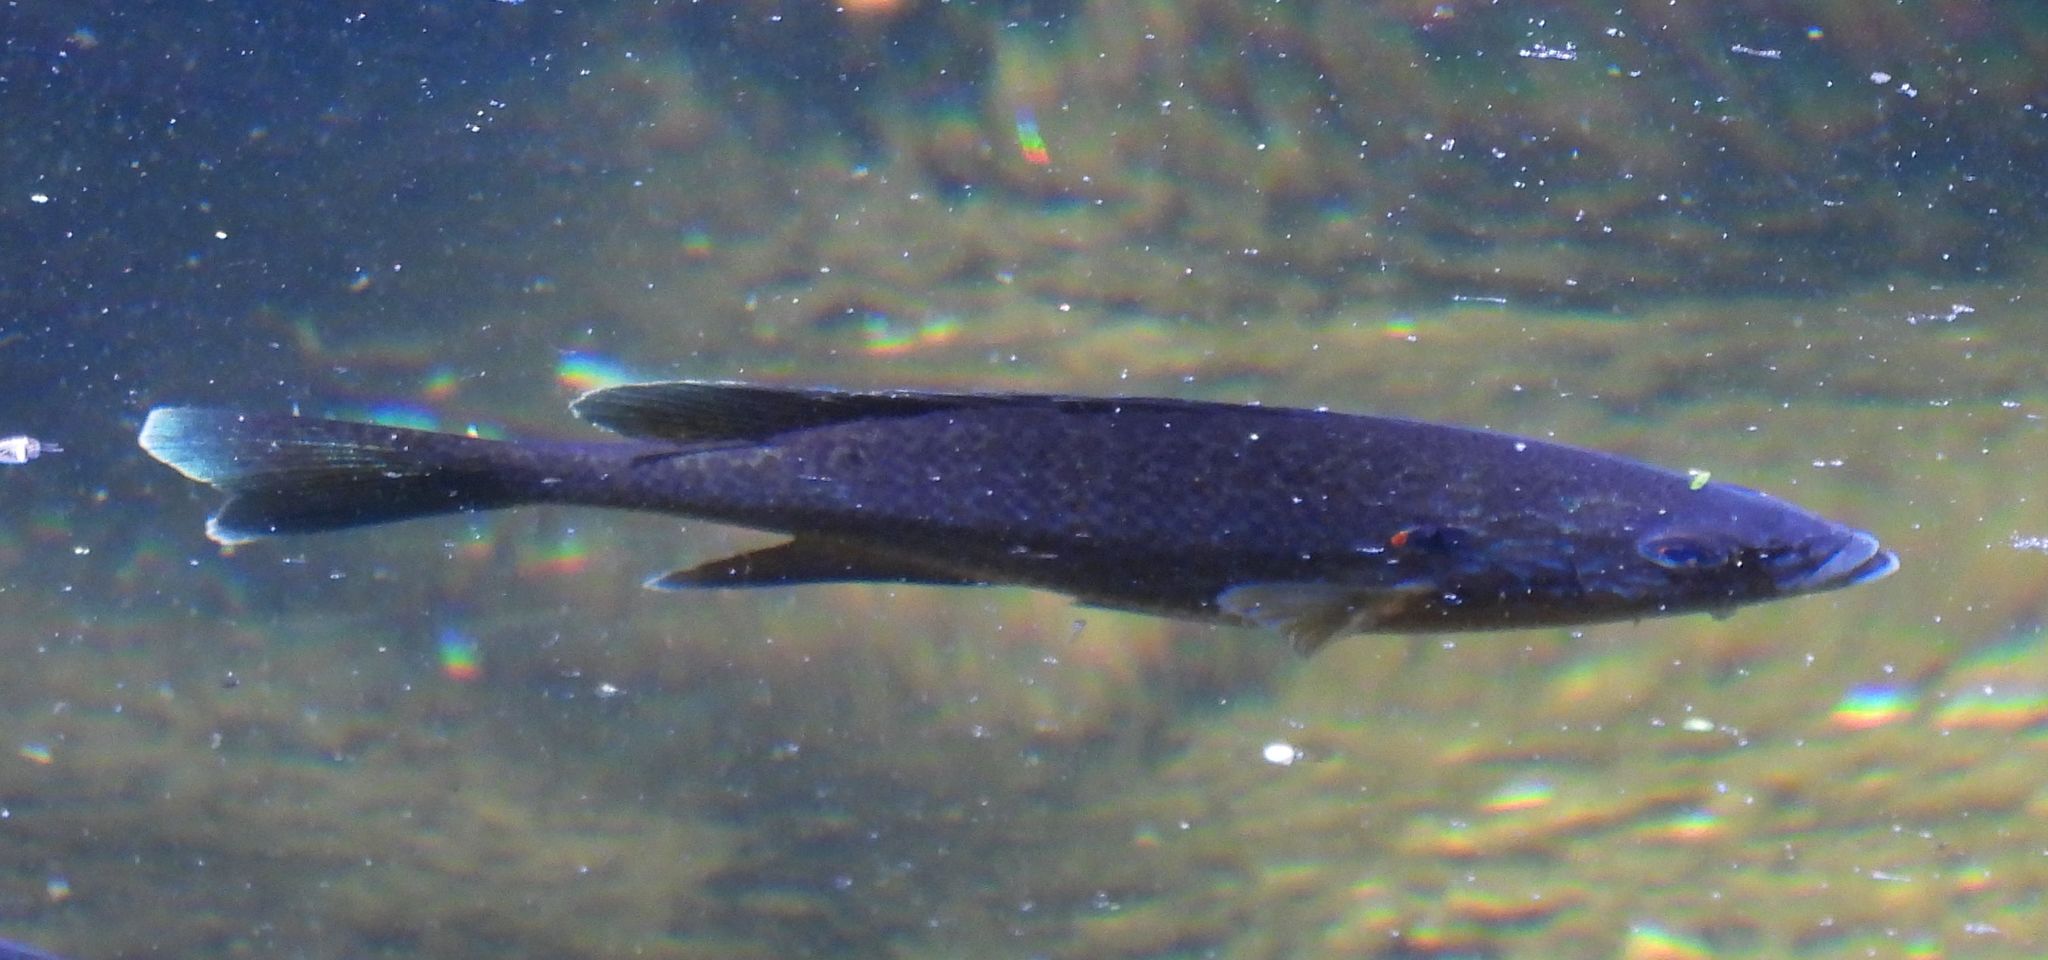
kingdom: Animalia
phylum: Chordata
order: Perciformes
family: Centrarchidae
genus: Lepomis
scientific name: Lepomis gibbosus
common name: Pumpkinseed
